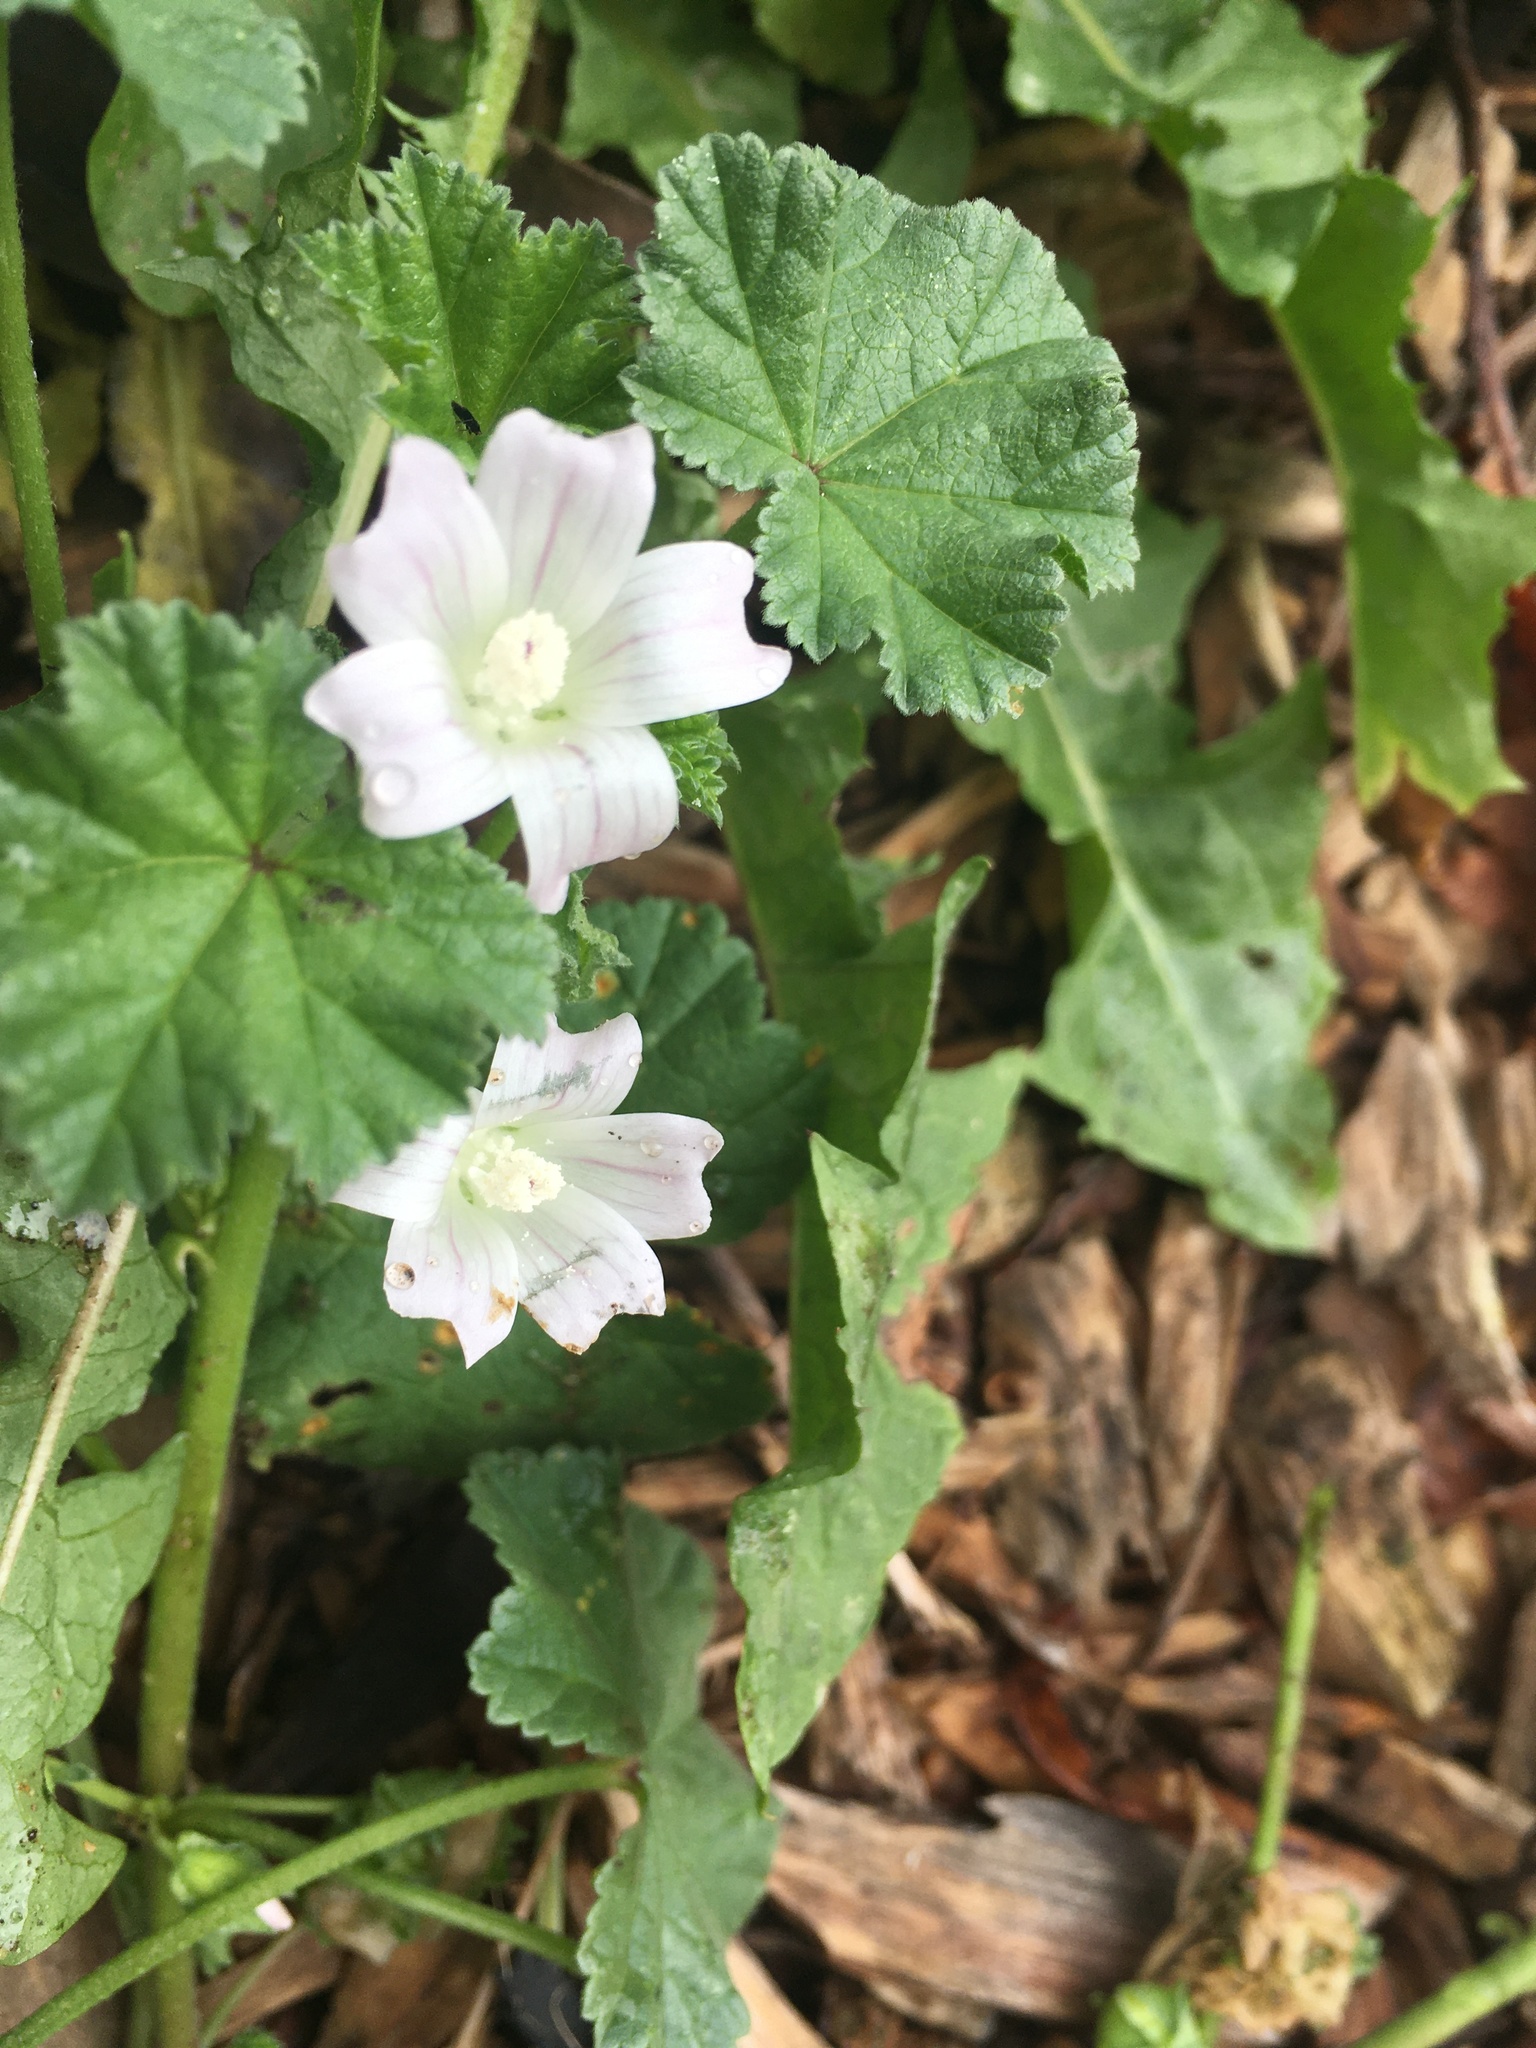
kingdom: Plantae
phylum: Tracheophyta
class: Magnoliopsida
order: Malvales
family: Malvaceae
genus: Malva
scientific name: Malva neglecta
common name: Common mallow
